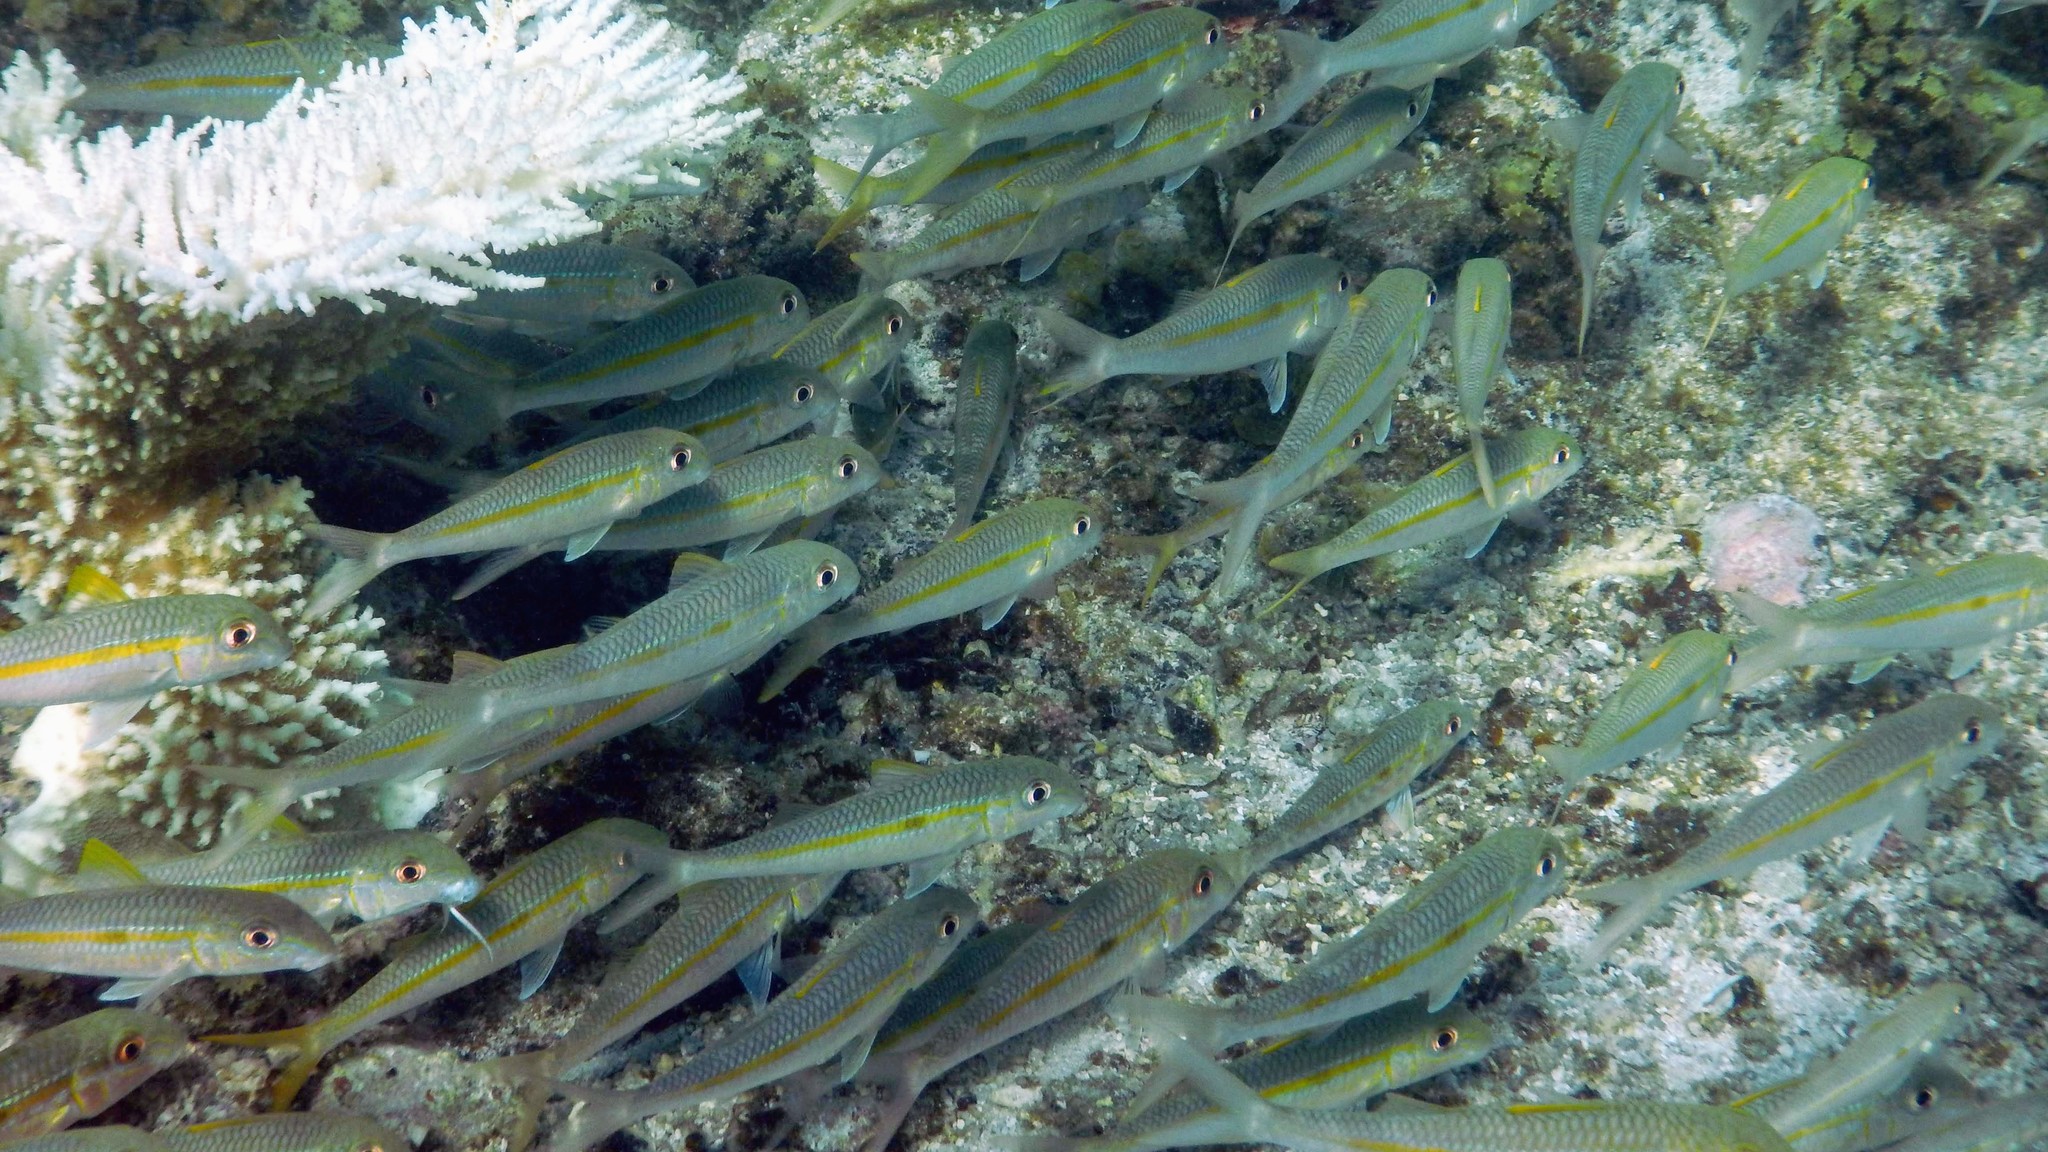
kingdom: Animalia
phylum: Chordata
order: Perciformes
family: Mullidae
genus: Mulloidichthys
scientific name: Mulloidichthys flavolineatus
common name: Yellowstripe goatfish
